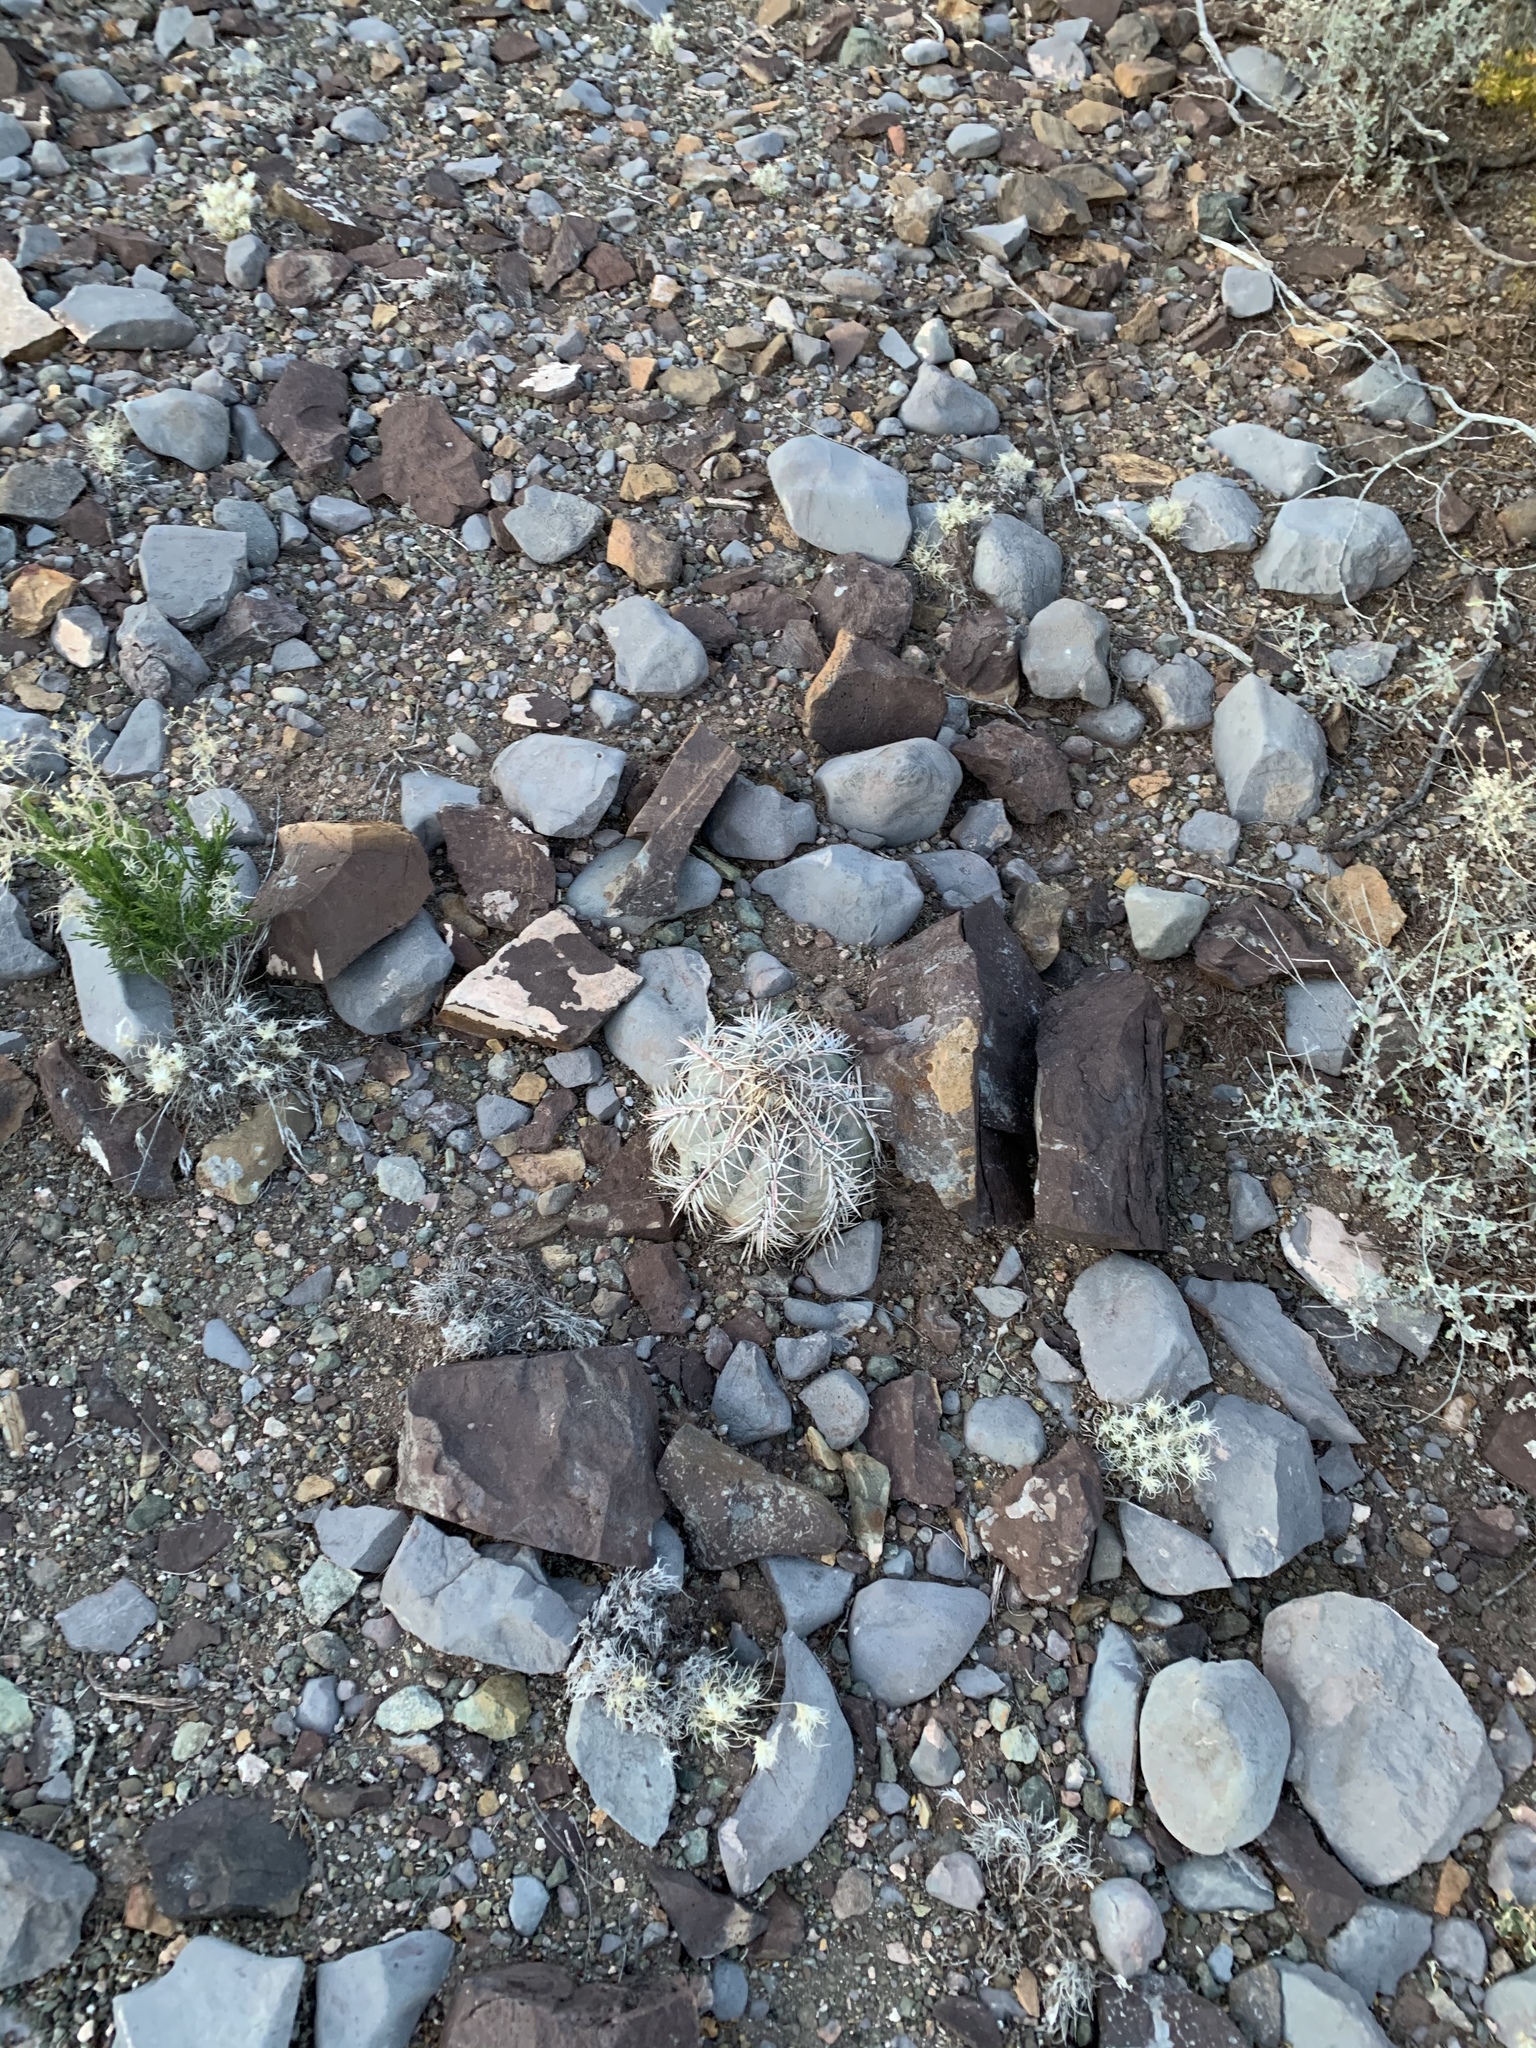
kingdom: Plantae
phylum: Tracheophyta
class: Magnoliopsida
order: Caryophyllales
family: Cactaceae
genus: Echinocactus
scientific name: Echinocactus horizonthalonius
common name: Devilshead
